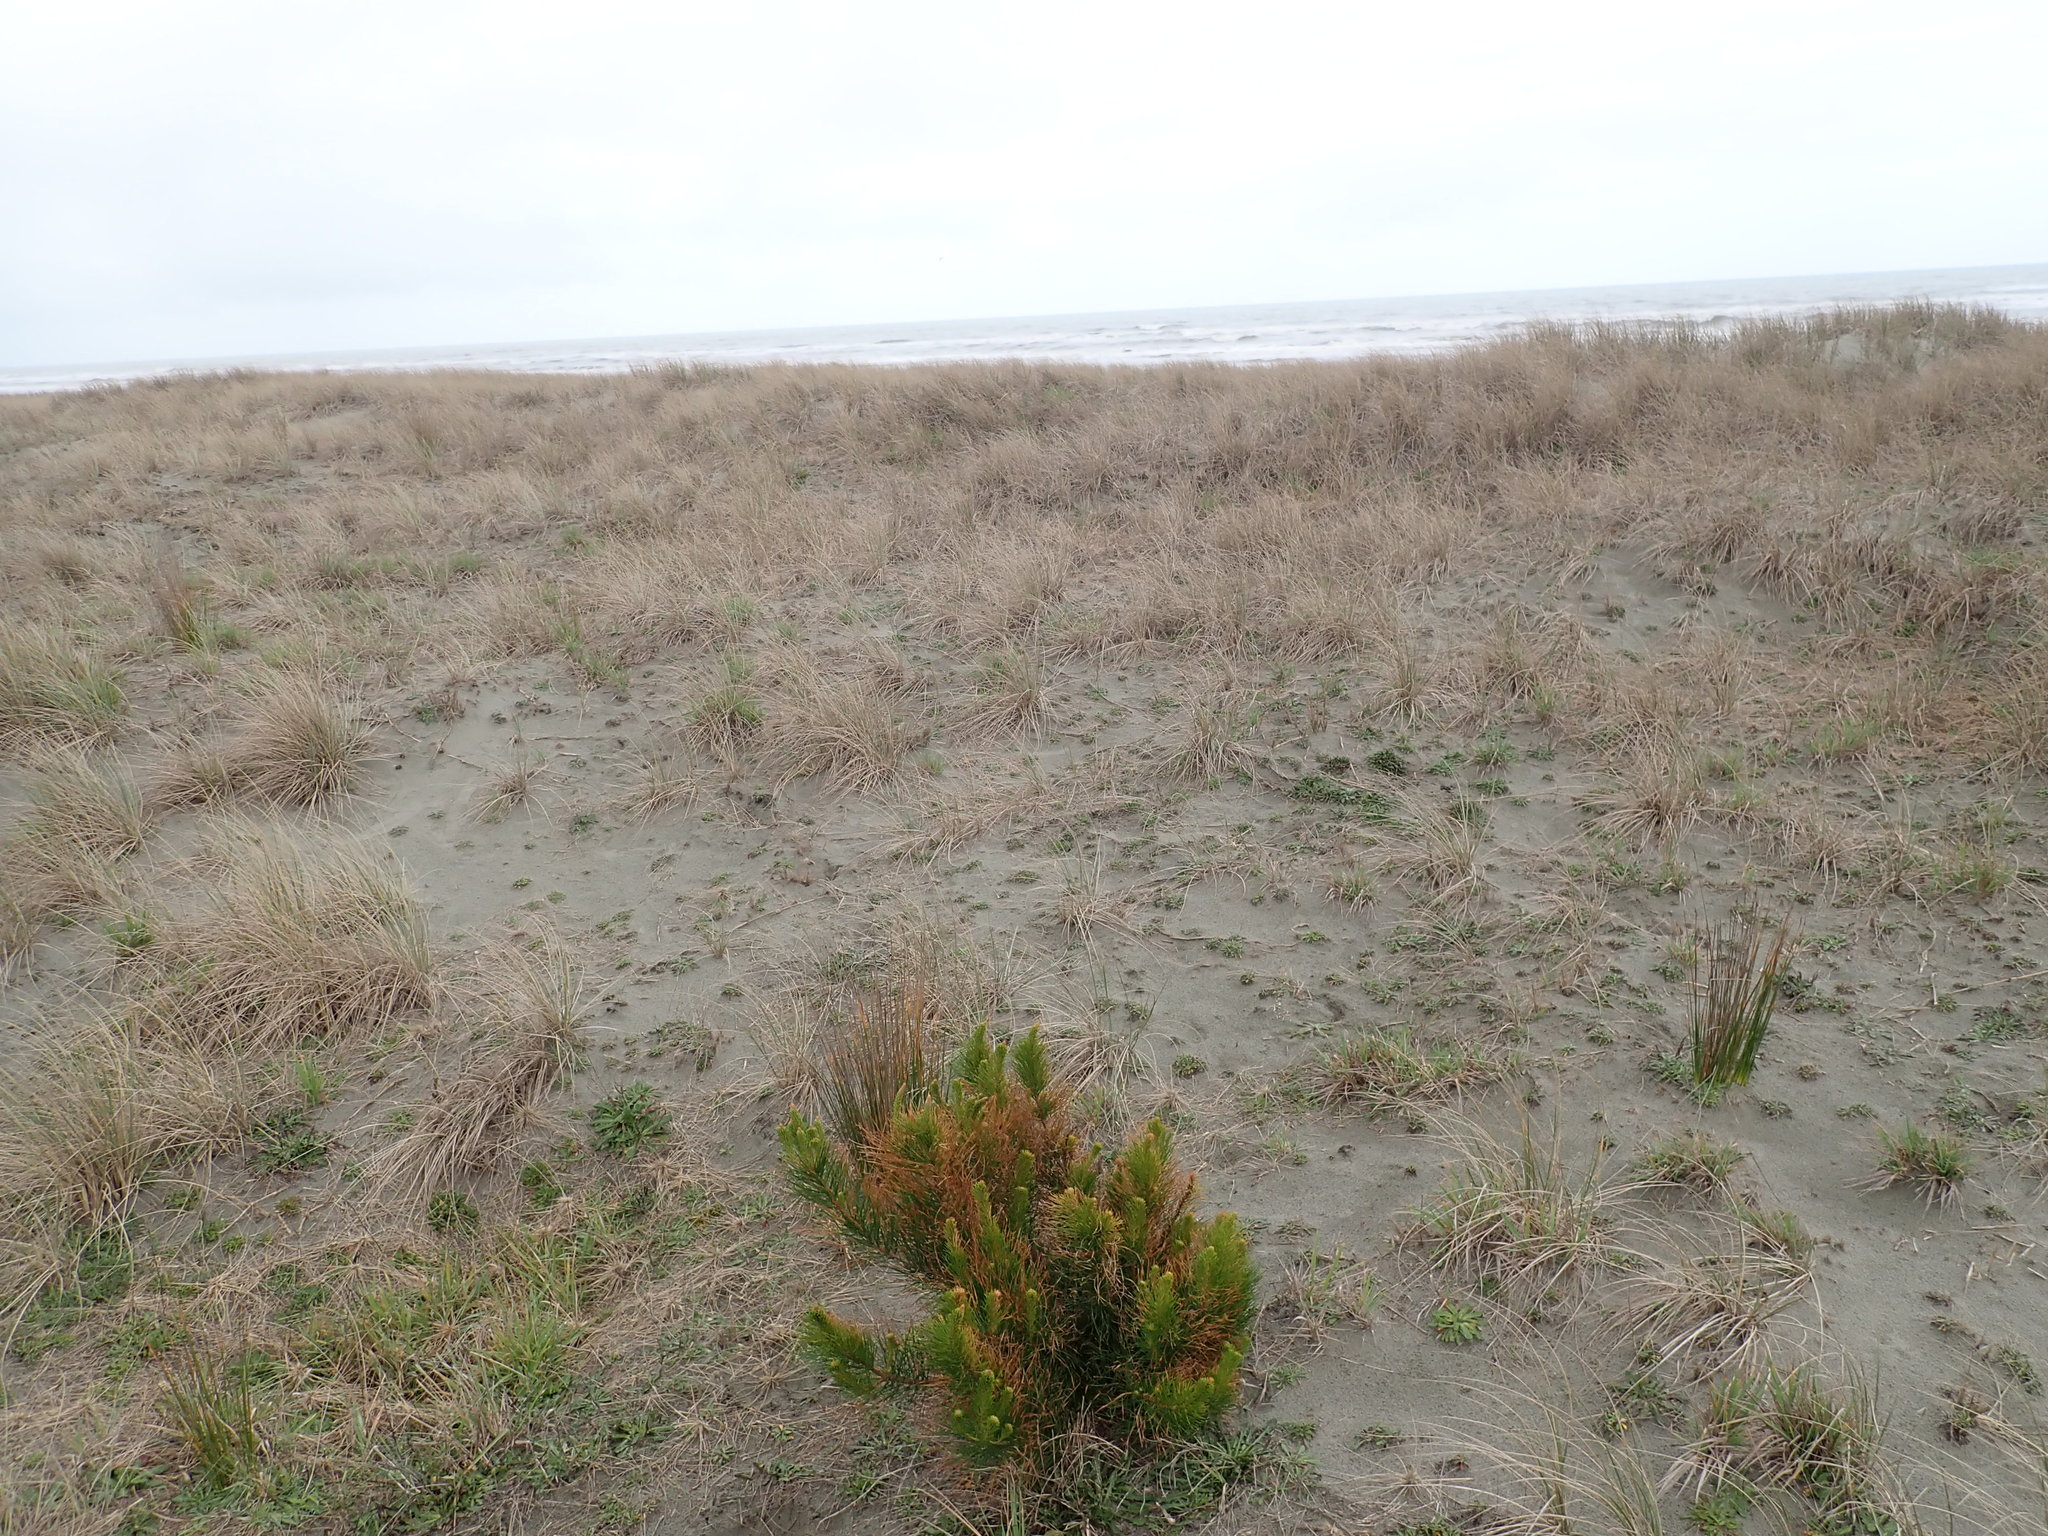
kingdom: Plantae
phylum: Tracheophyta
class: Pinopsida
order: Pinales
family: Pinaceae
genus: Pinus
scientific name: Pinus radiata
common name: Monterey pine
